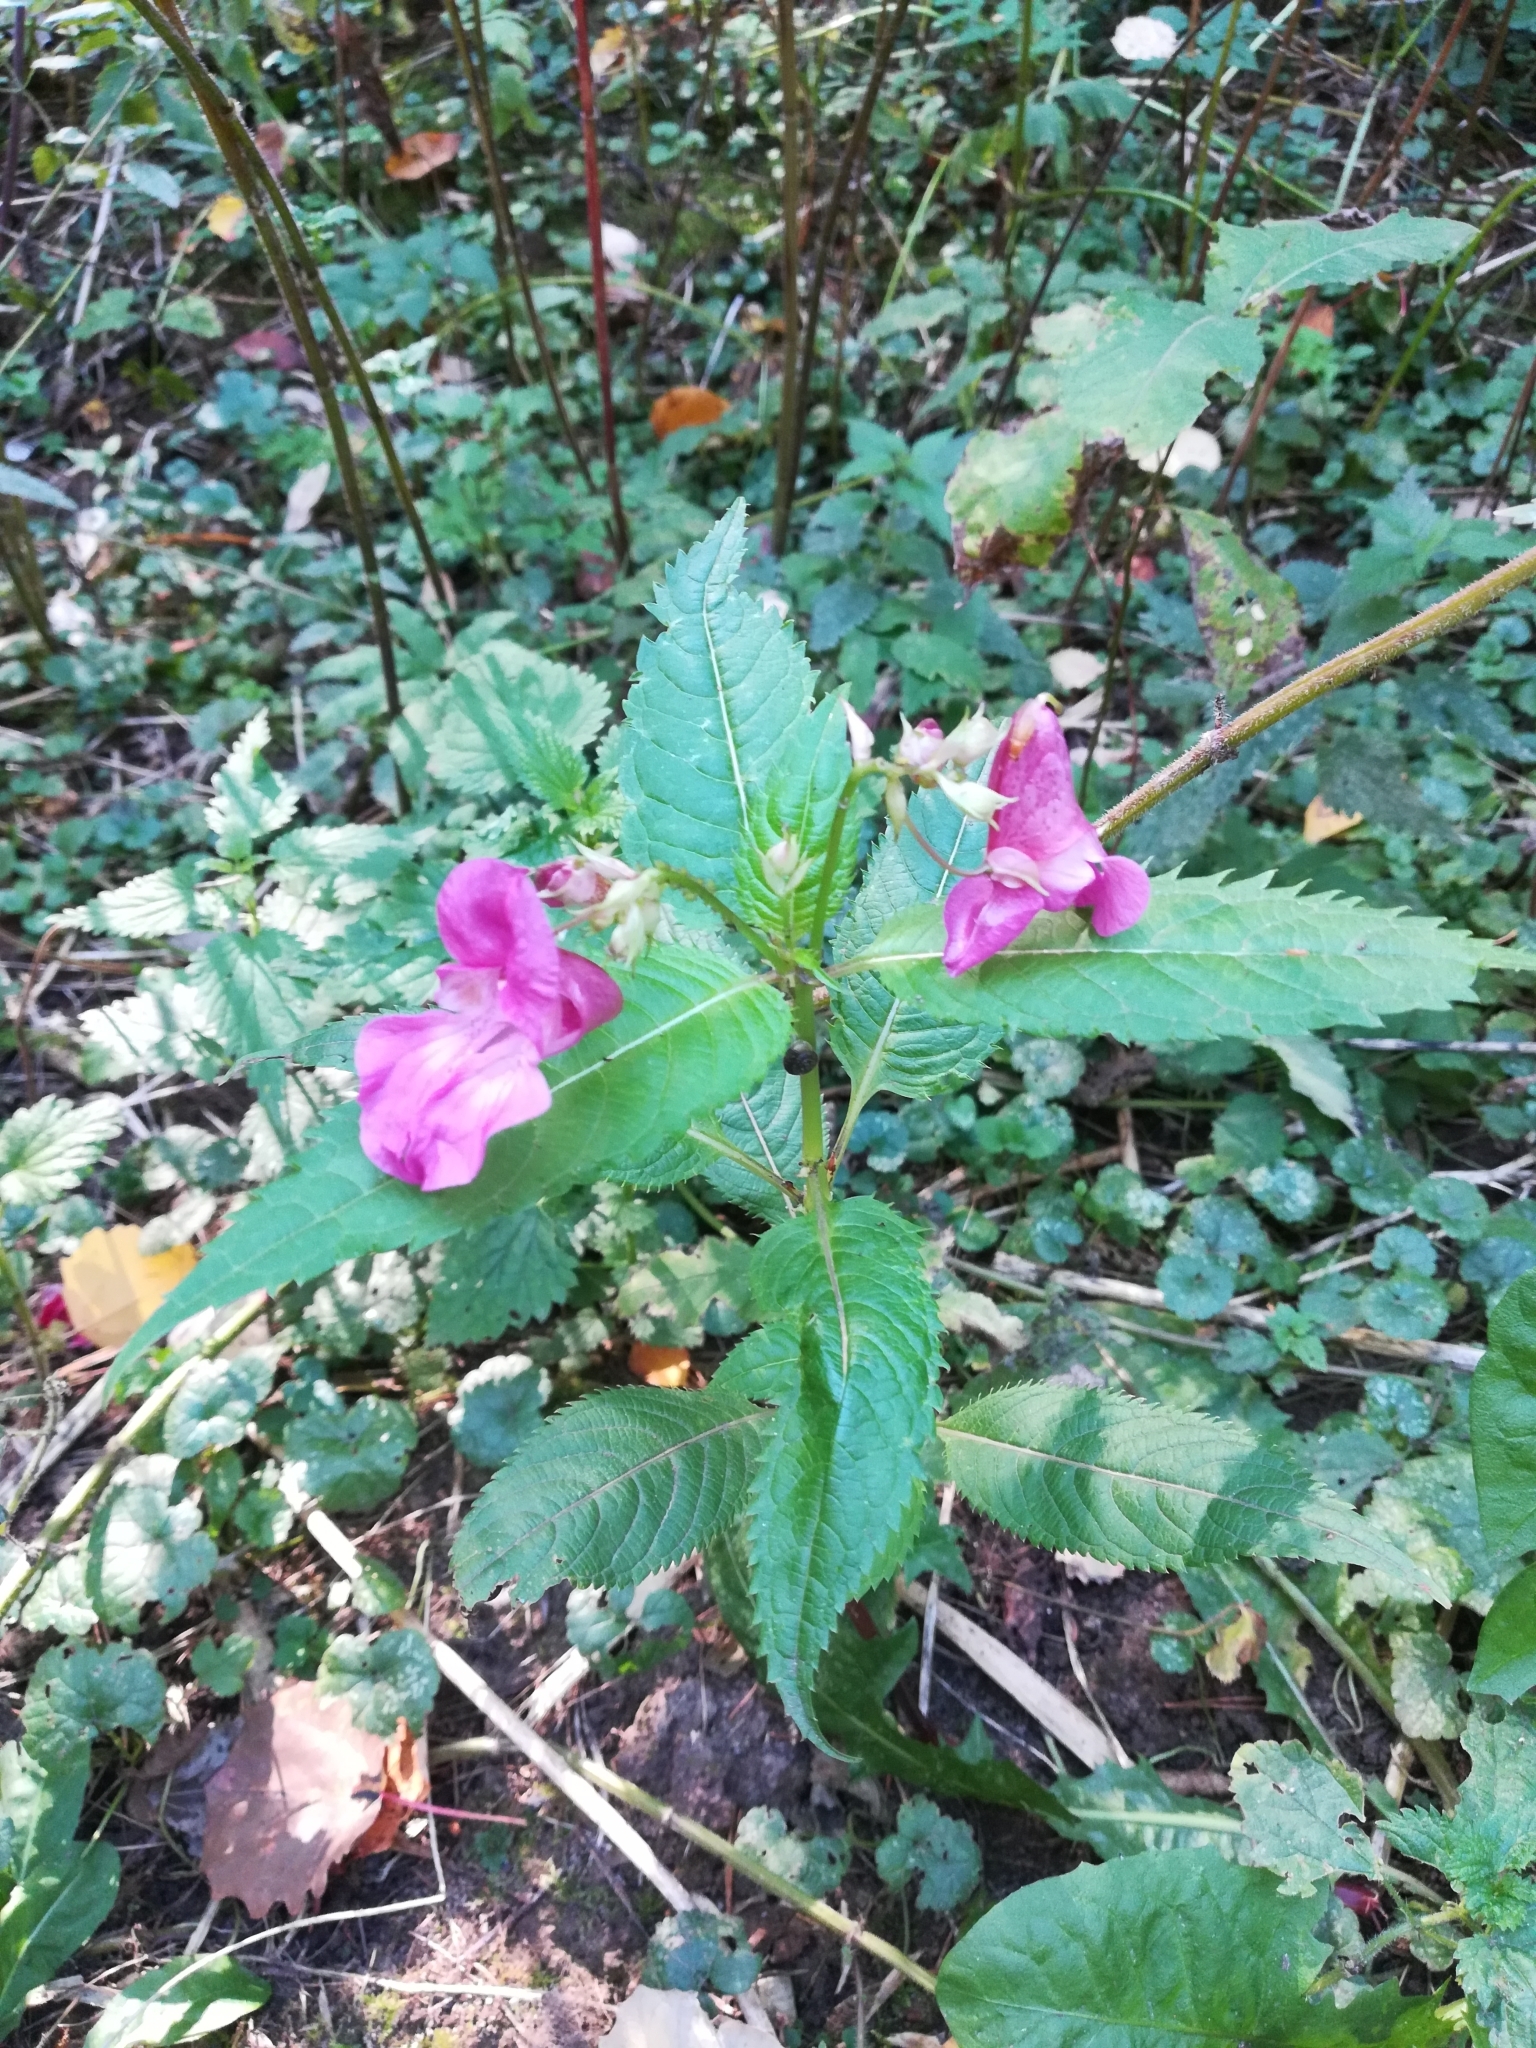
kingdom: Plantae
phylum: Tracheophyta
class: Magnoliopsida
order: Ericales
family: Balsaminaceae
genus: Impatiens
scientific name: Impatiens glandulifera
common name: Himalayan balsam
